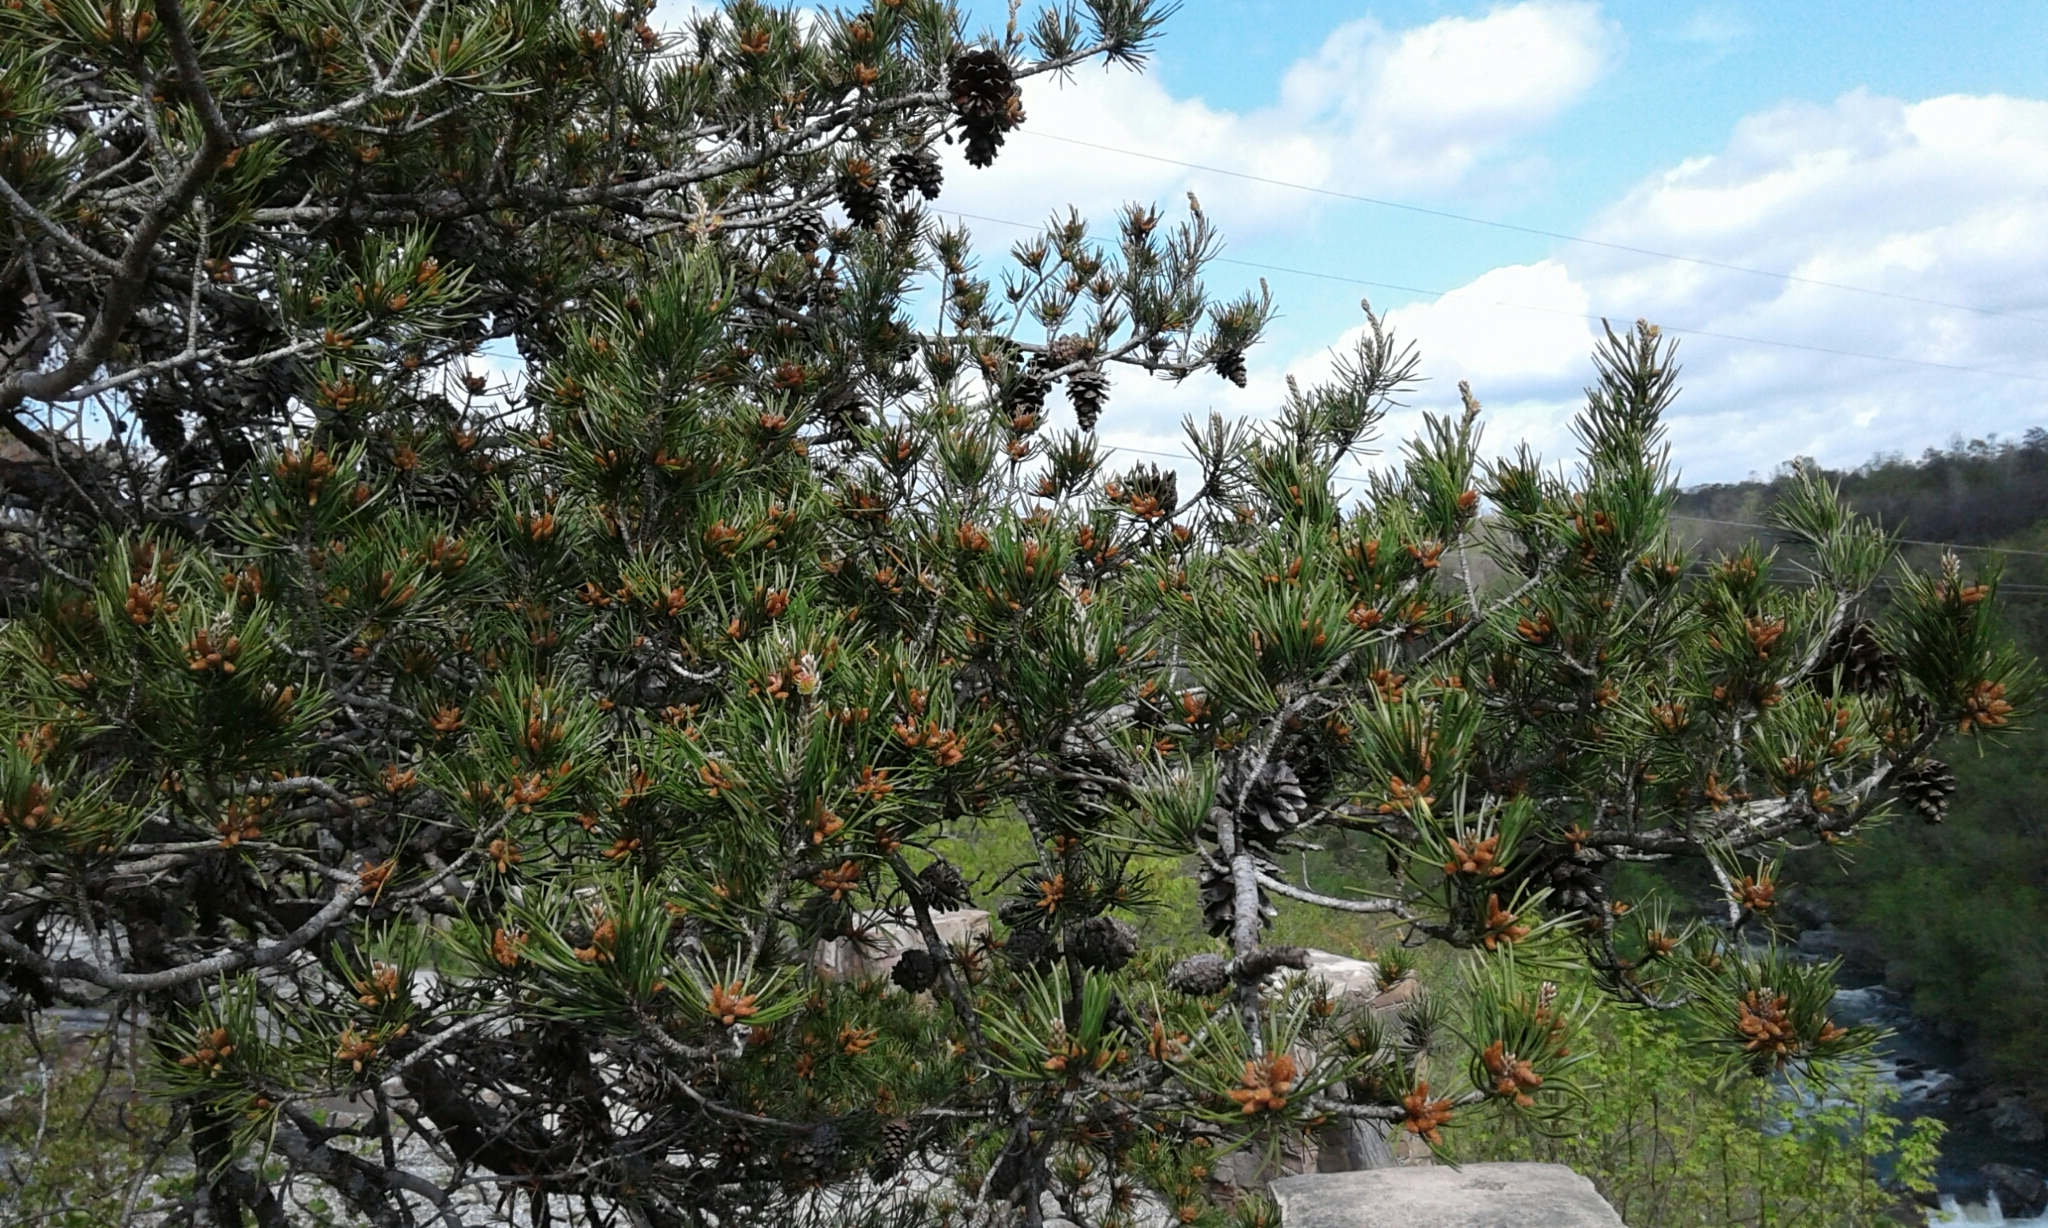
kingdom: Plantae
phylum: Tracheophyta
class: Pinopsida
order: Pinales
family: Pinaceae
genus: Pinus
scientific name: Pinus virginiana
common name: Scrub pine
